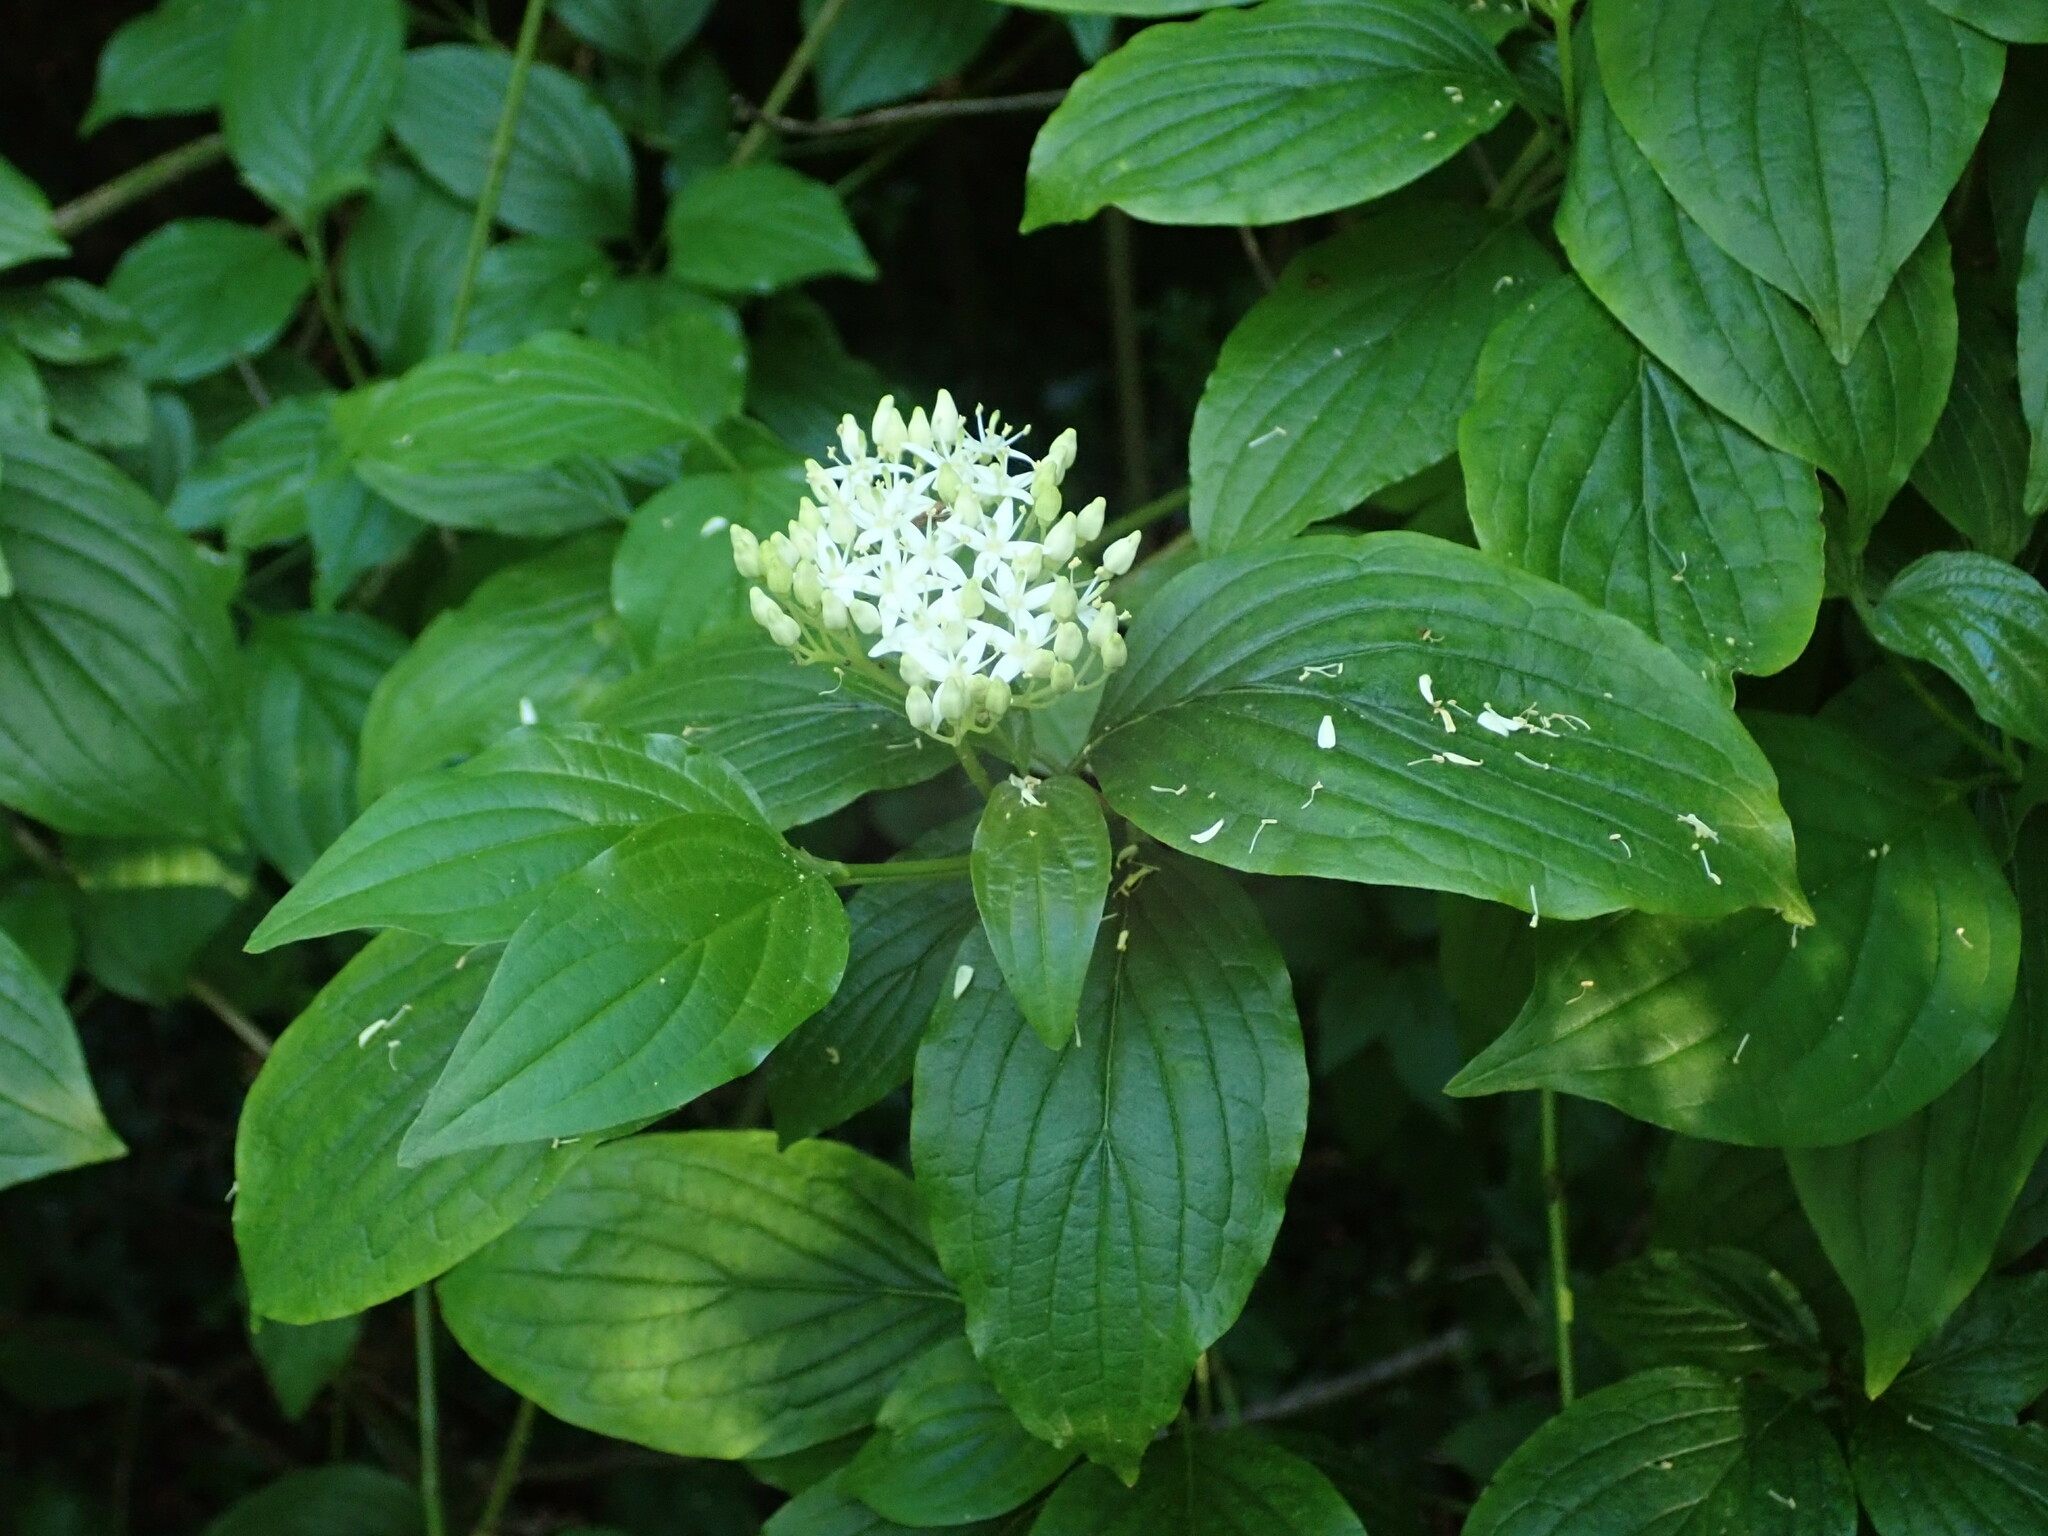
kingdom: Plantae
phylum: Tracheophyta
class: Magnoliopsida
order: Cornales
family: Cornaceae
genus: Cornus
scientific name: Cornus sanguinea
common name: Dogwood
